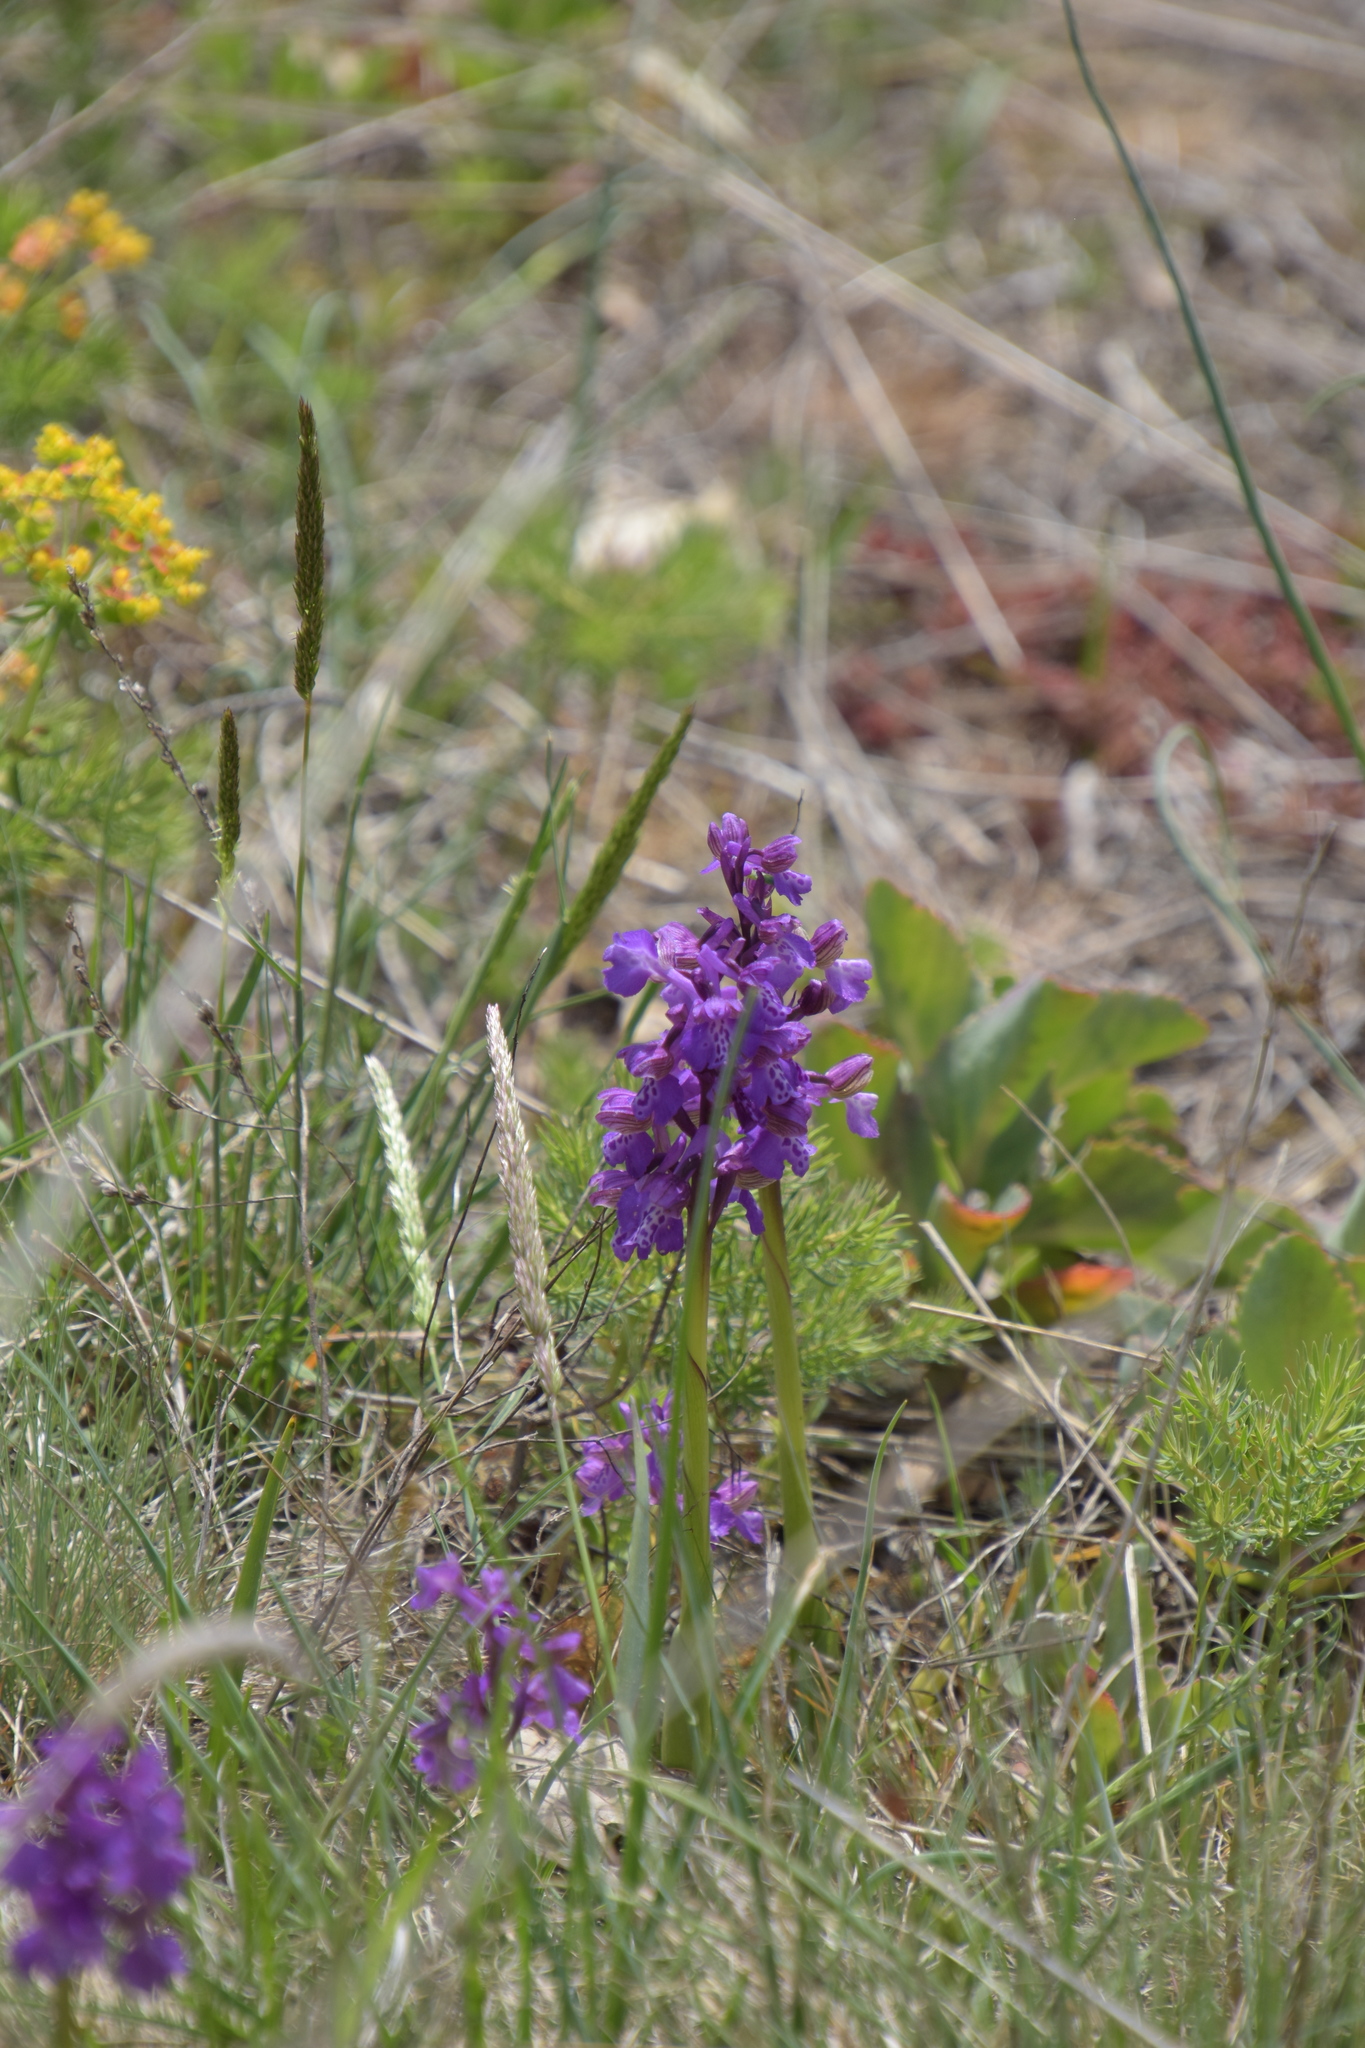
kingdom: Plantae
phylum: Tracheophyta
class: Liliopsida
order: Asparagales
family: Orchidaceae
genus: Anacamptis
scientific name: Anacamptis morio
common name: Green-winged orchid
